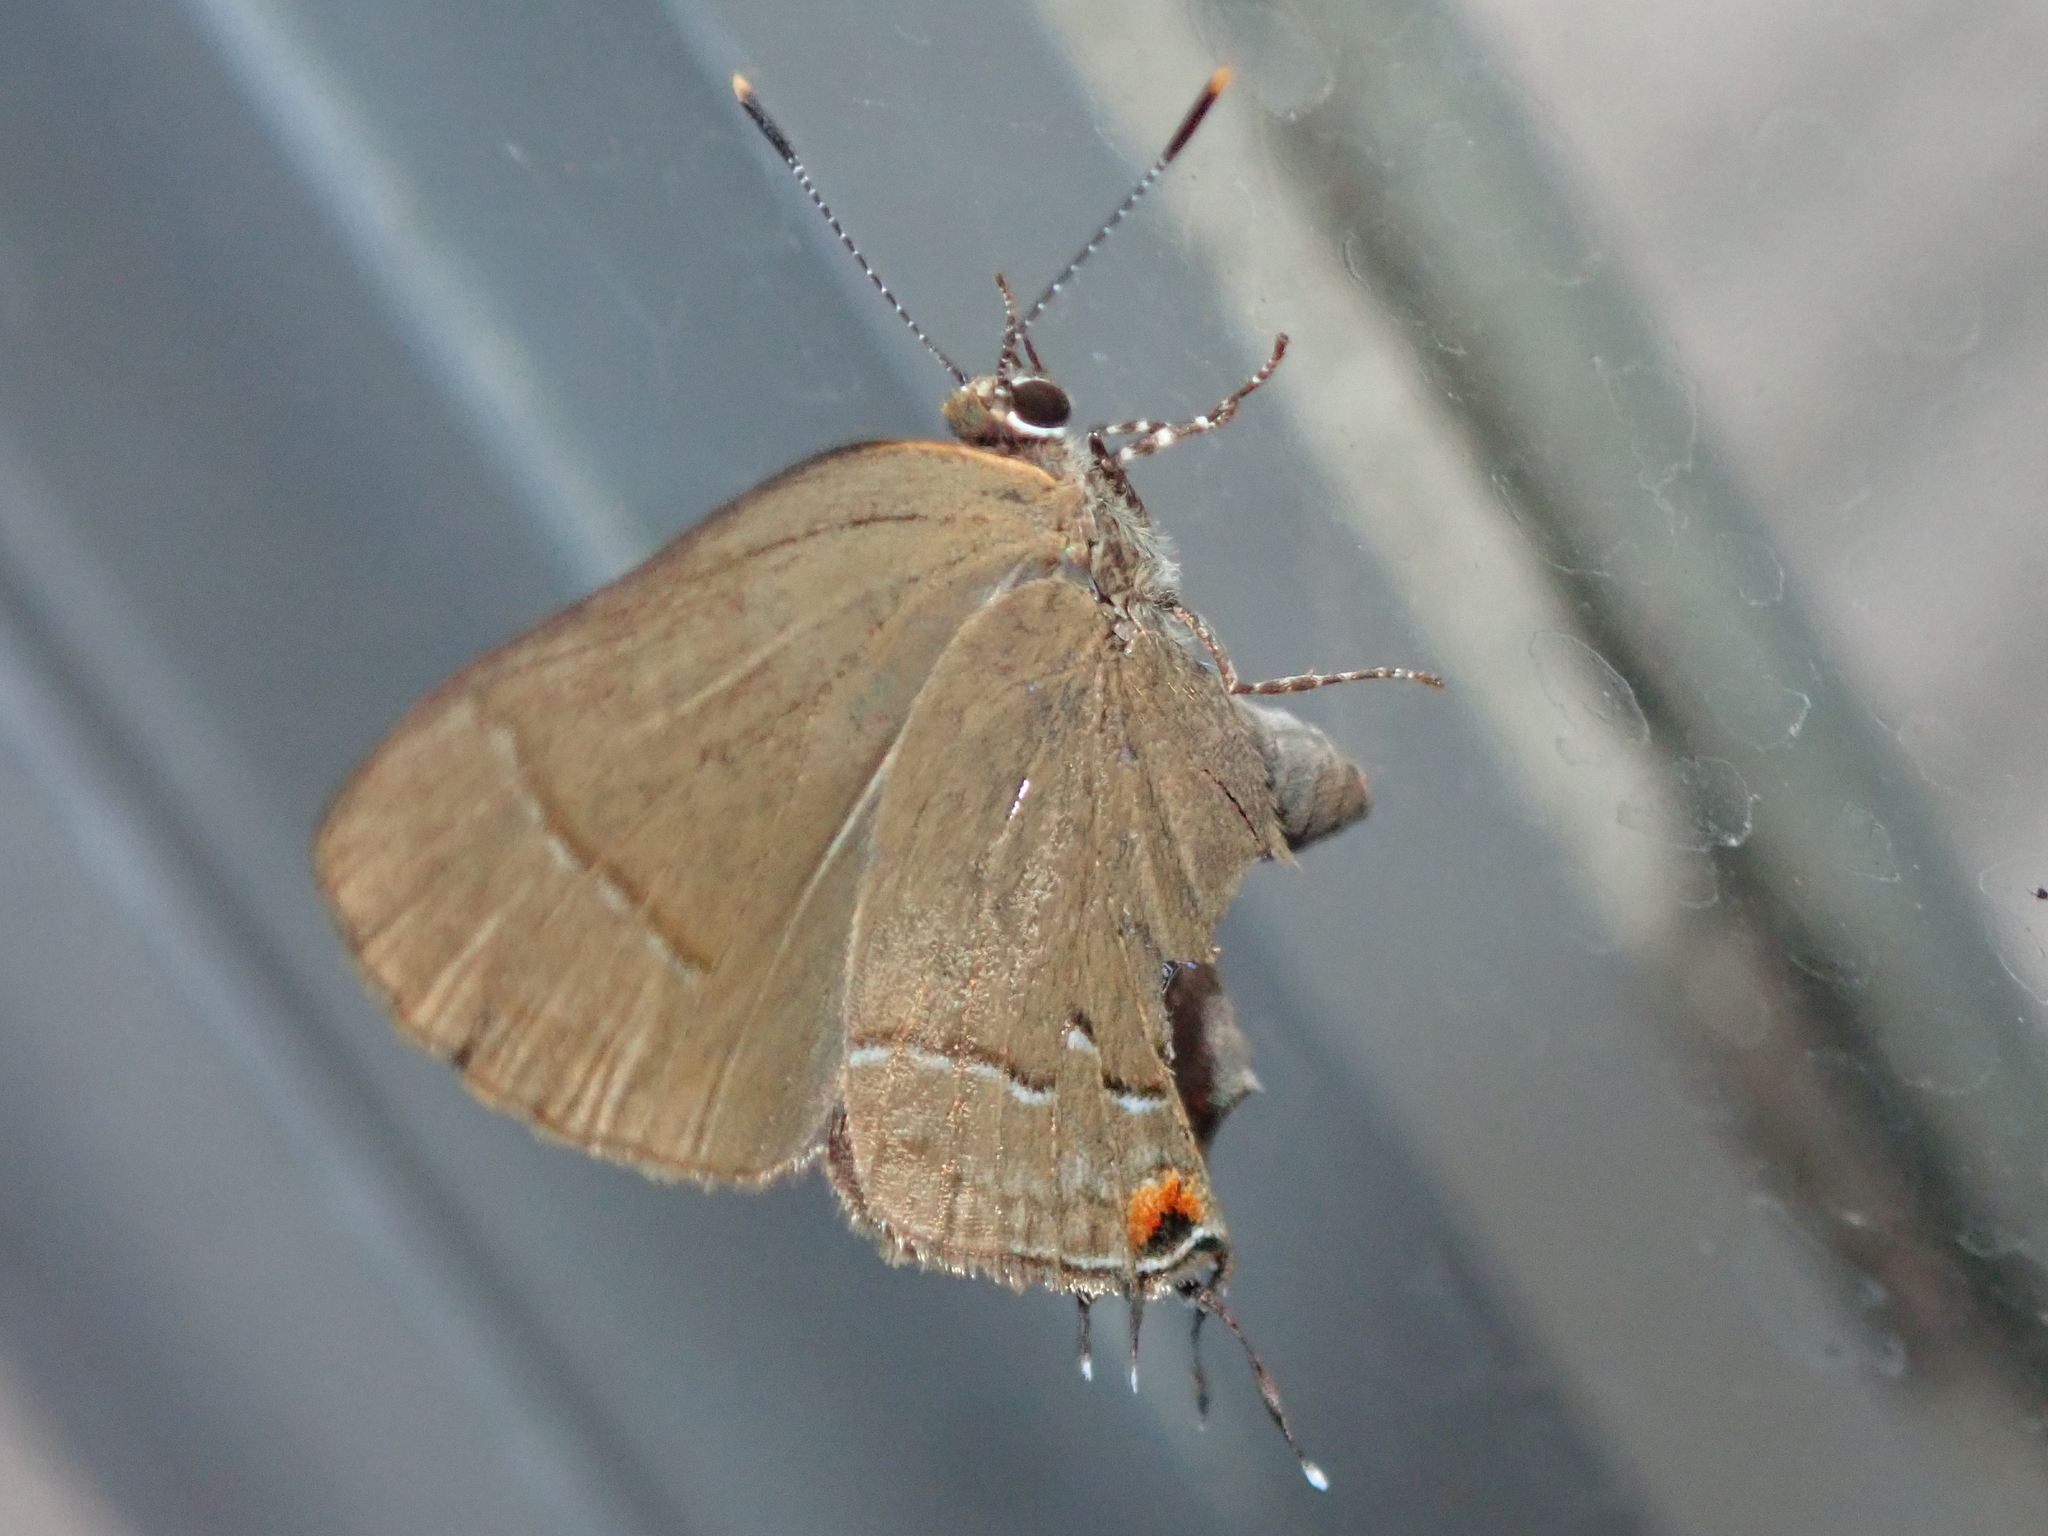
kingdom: Animalia
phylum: Arthropoda
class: Insecta
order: Lepidoptera
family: Lycaenidae
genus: Ziegleria
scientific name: Ziegleria hesperitis
